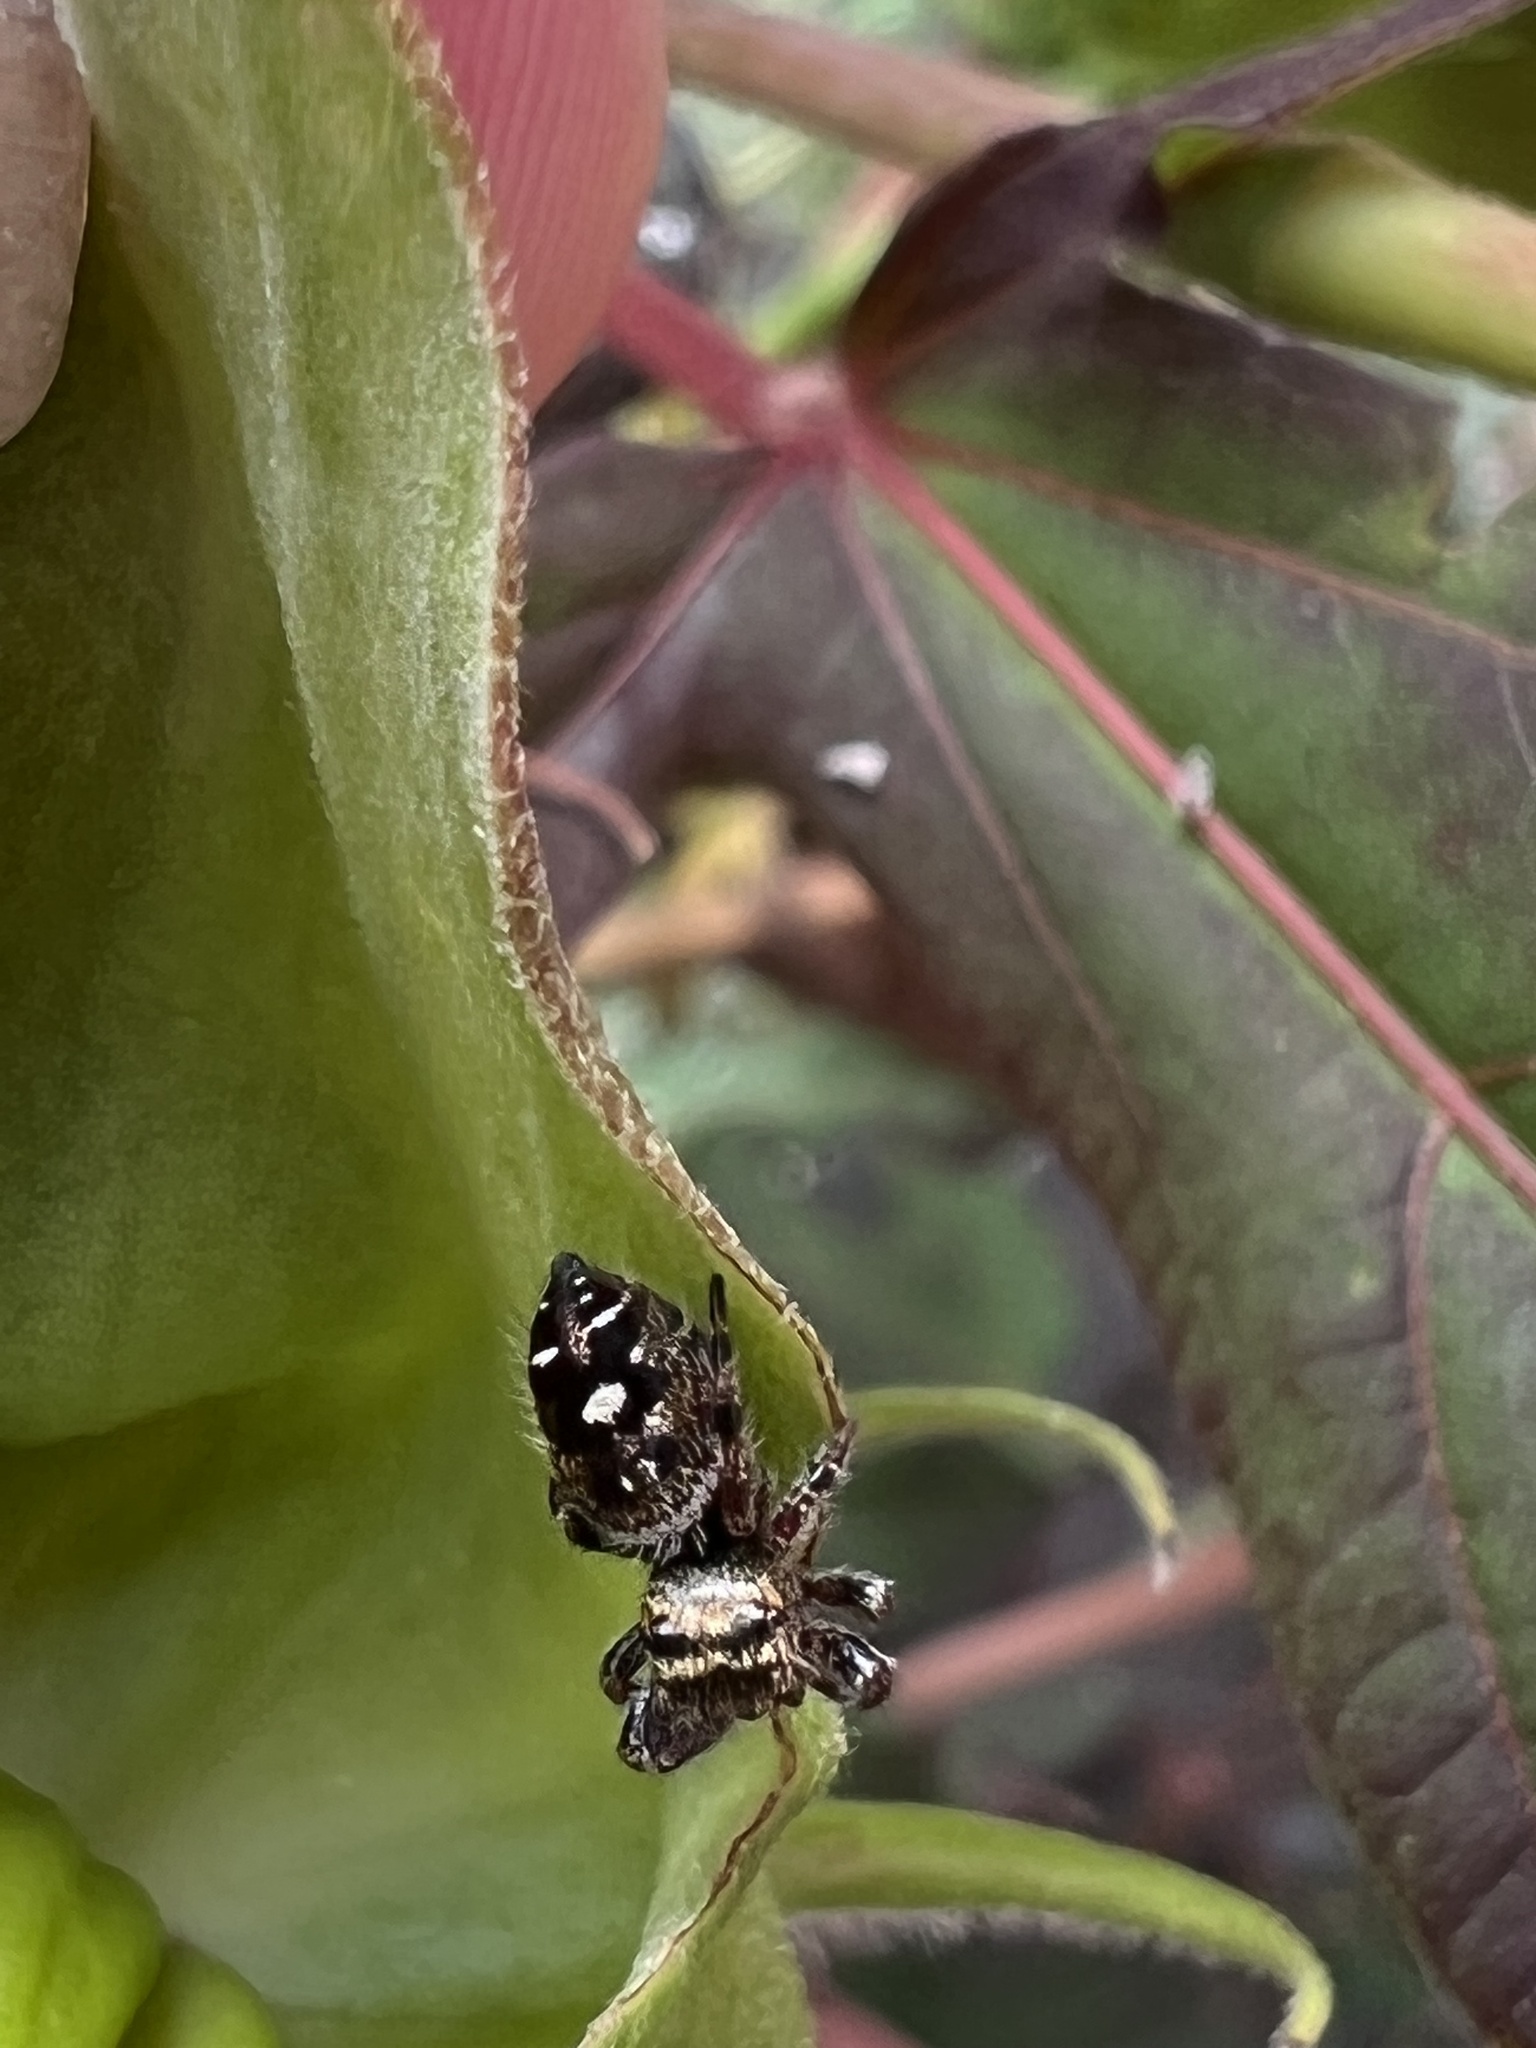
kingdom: Animalia
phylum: Arthropoda
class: Arachnida
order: Araneae
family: Salticidae
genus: Phidippus
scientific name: Phidippus audax
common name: Bold jumper
